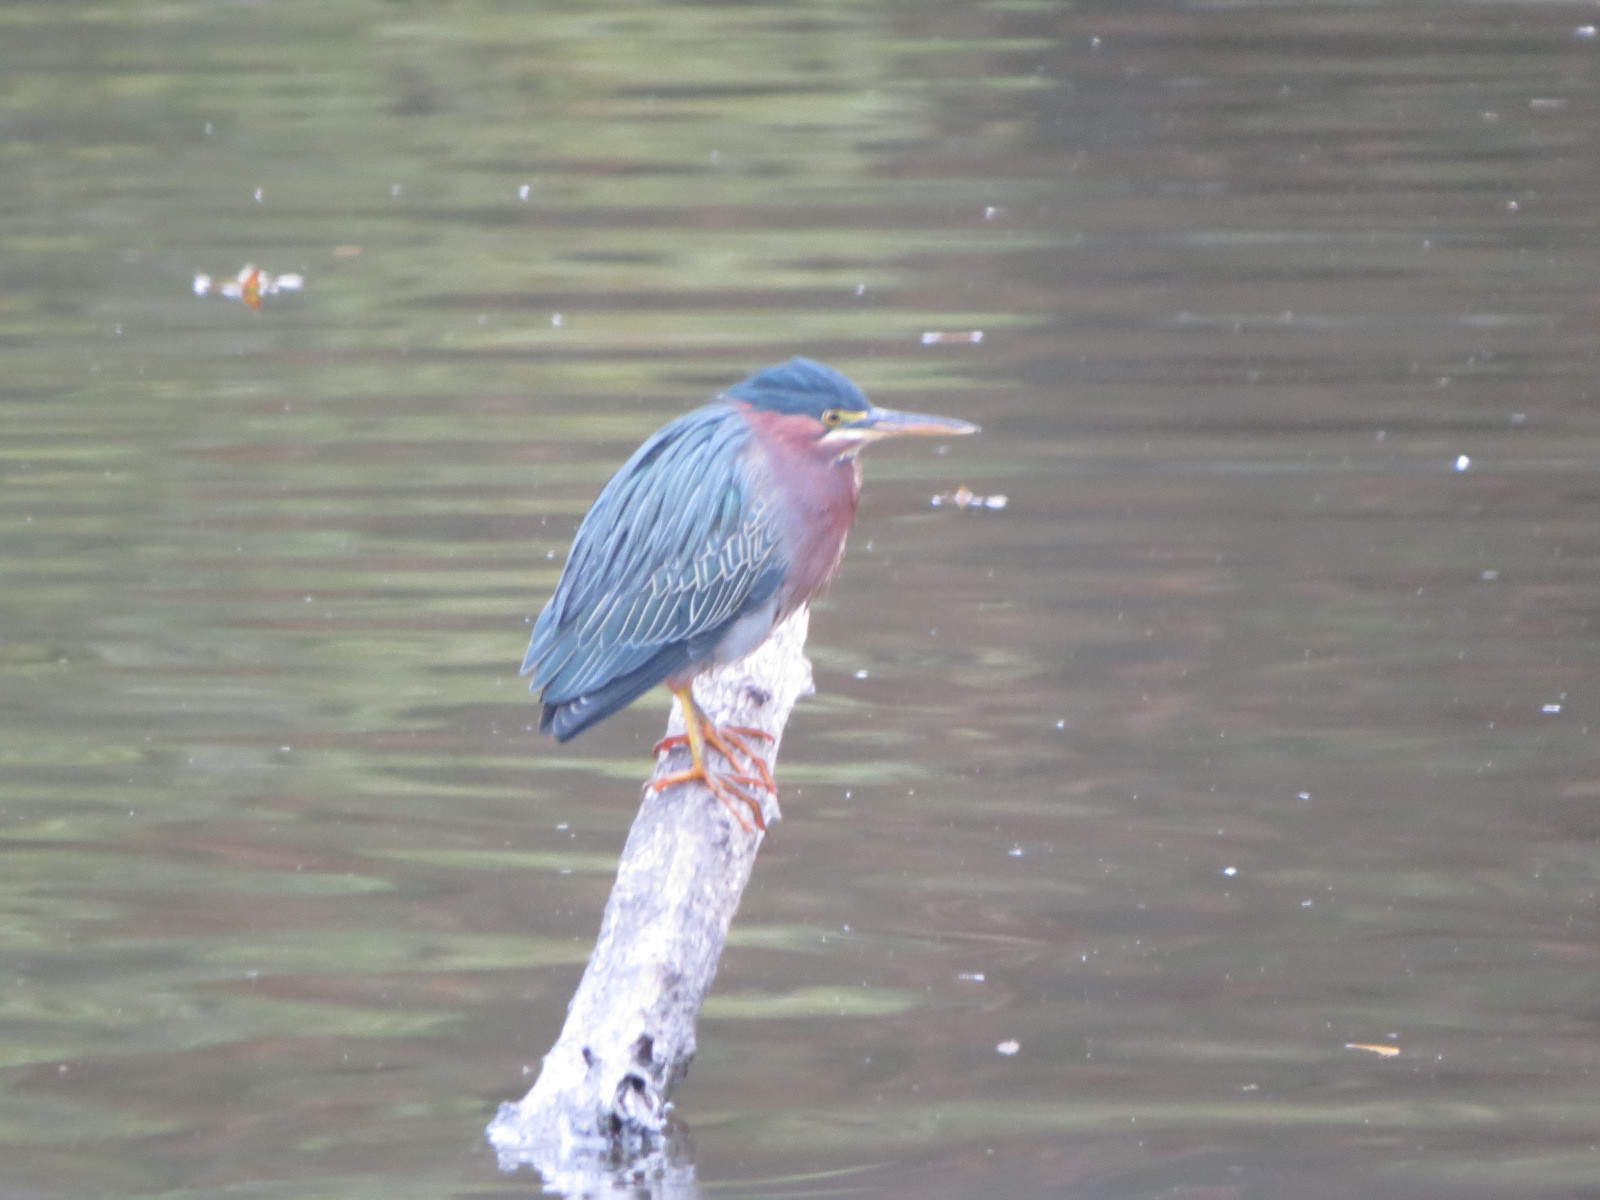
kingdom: Animalia
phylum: Chordata
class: Aves
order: Pelecaniformes
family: Ardeidae
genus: Butorides
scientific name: Butorides virescens
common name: Green heron
